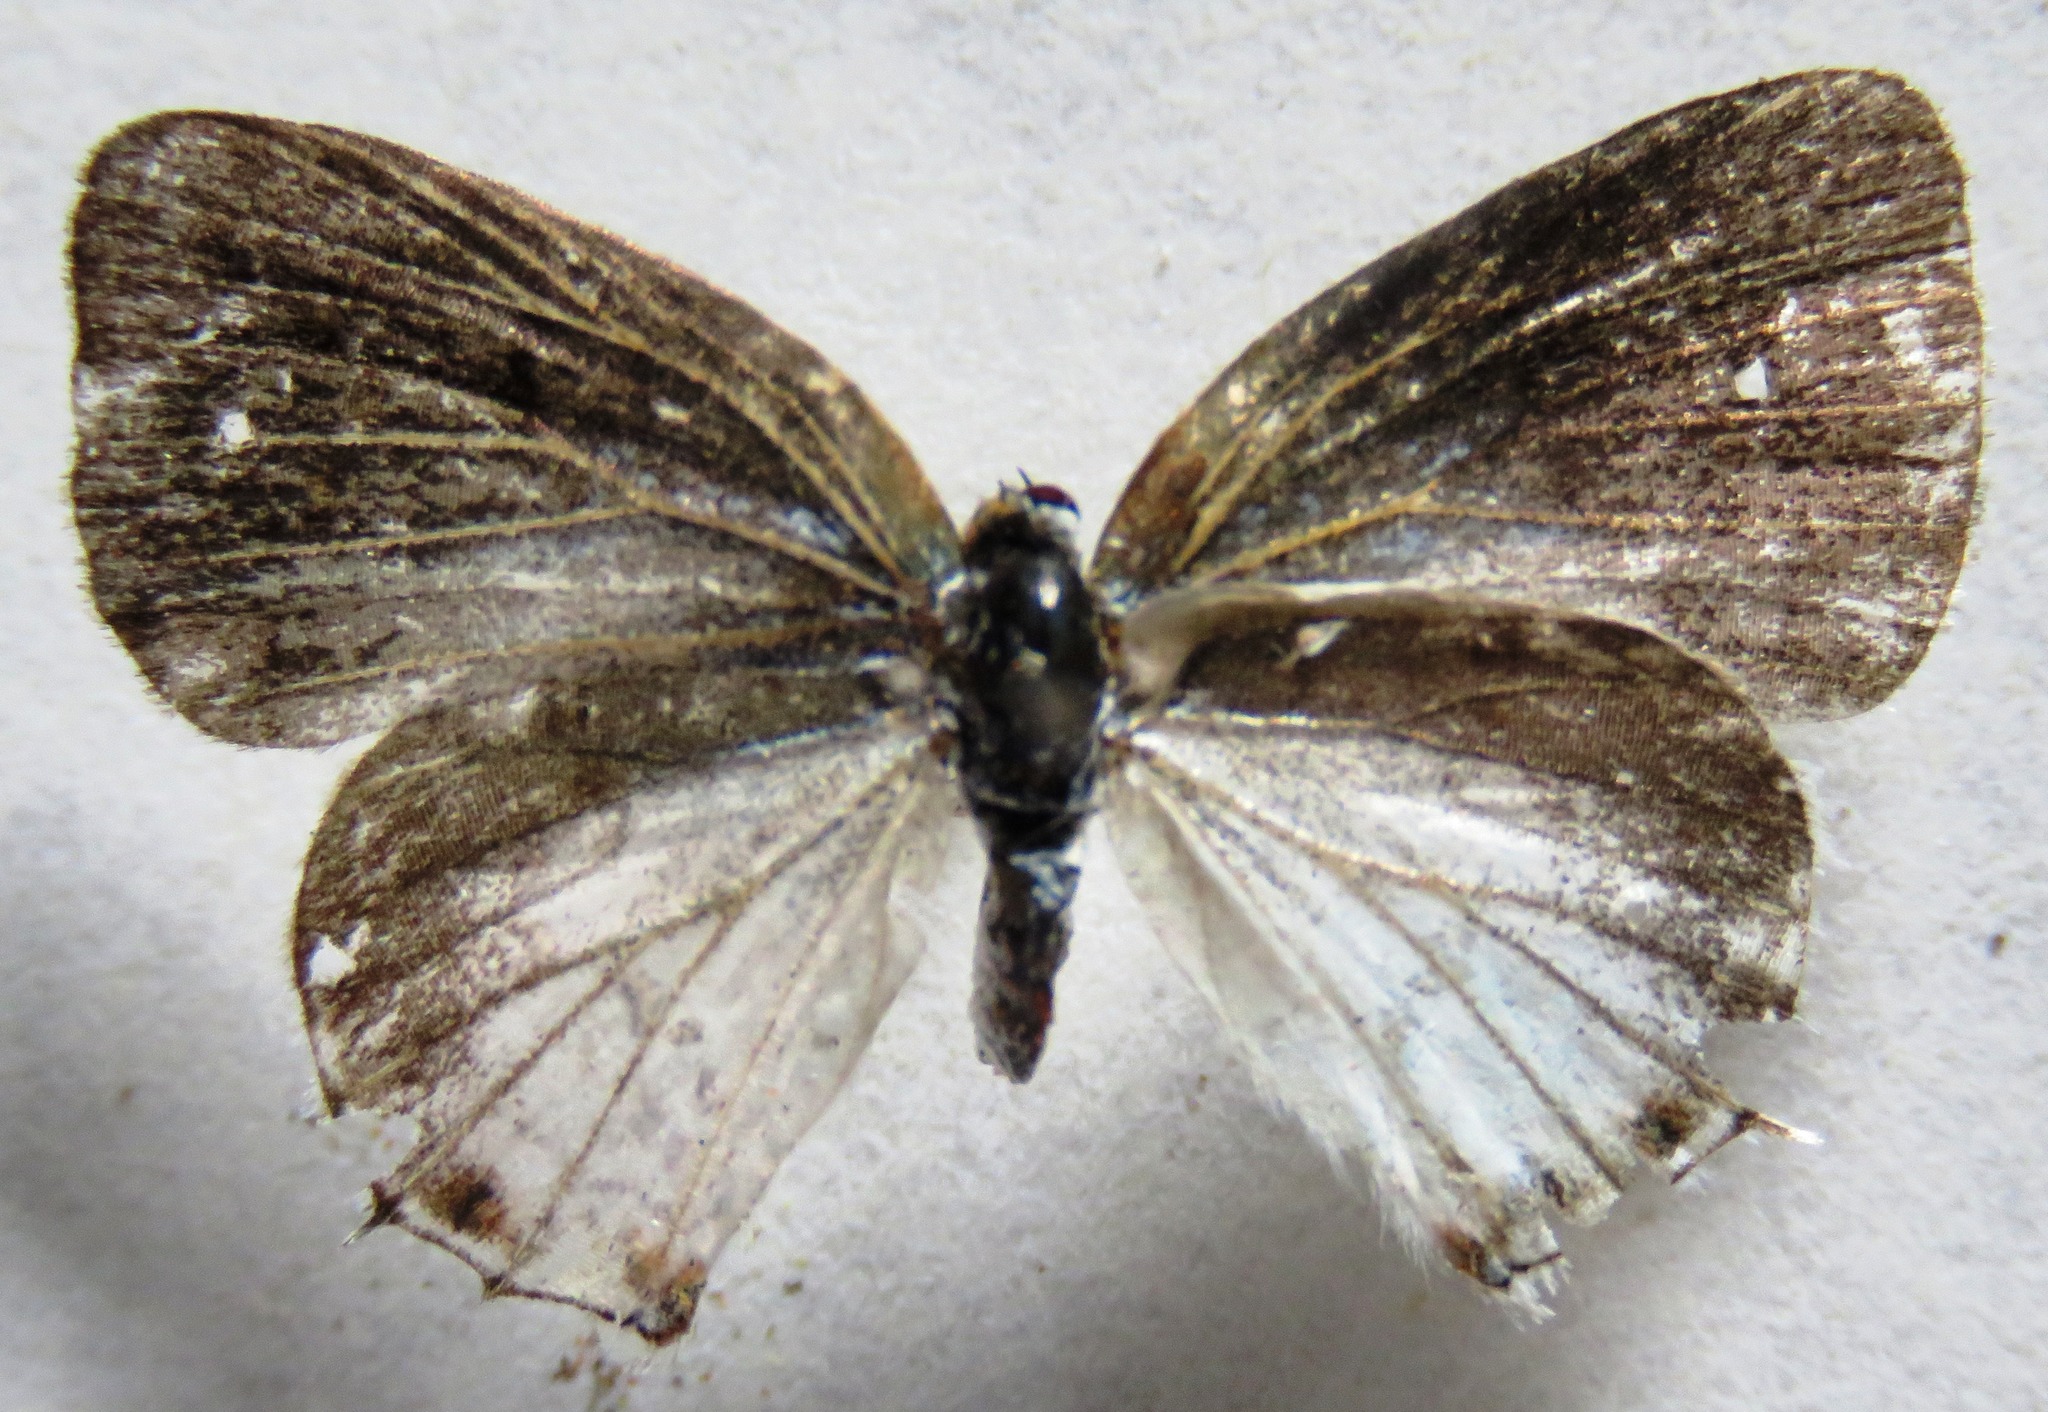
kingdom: Animalia
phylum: Arthropoda
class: Insecta
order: Lepidoptera
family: Lycaenidae
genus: Thecla
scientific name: Thecla una
